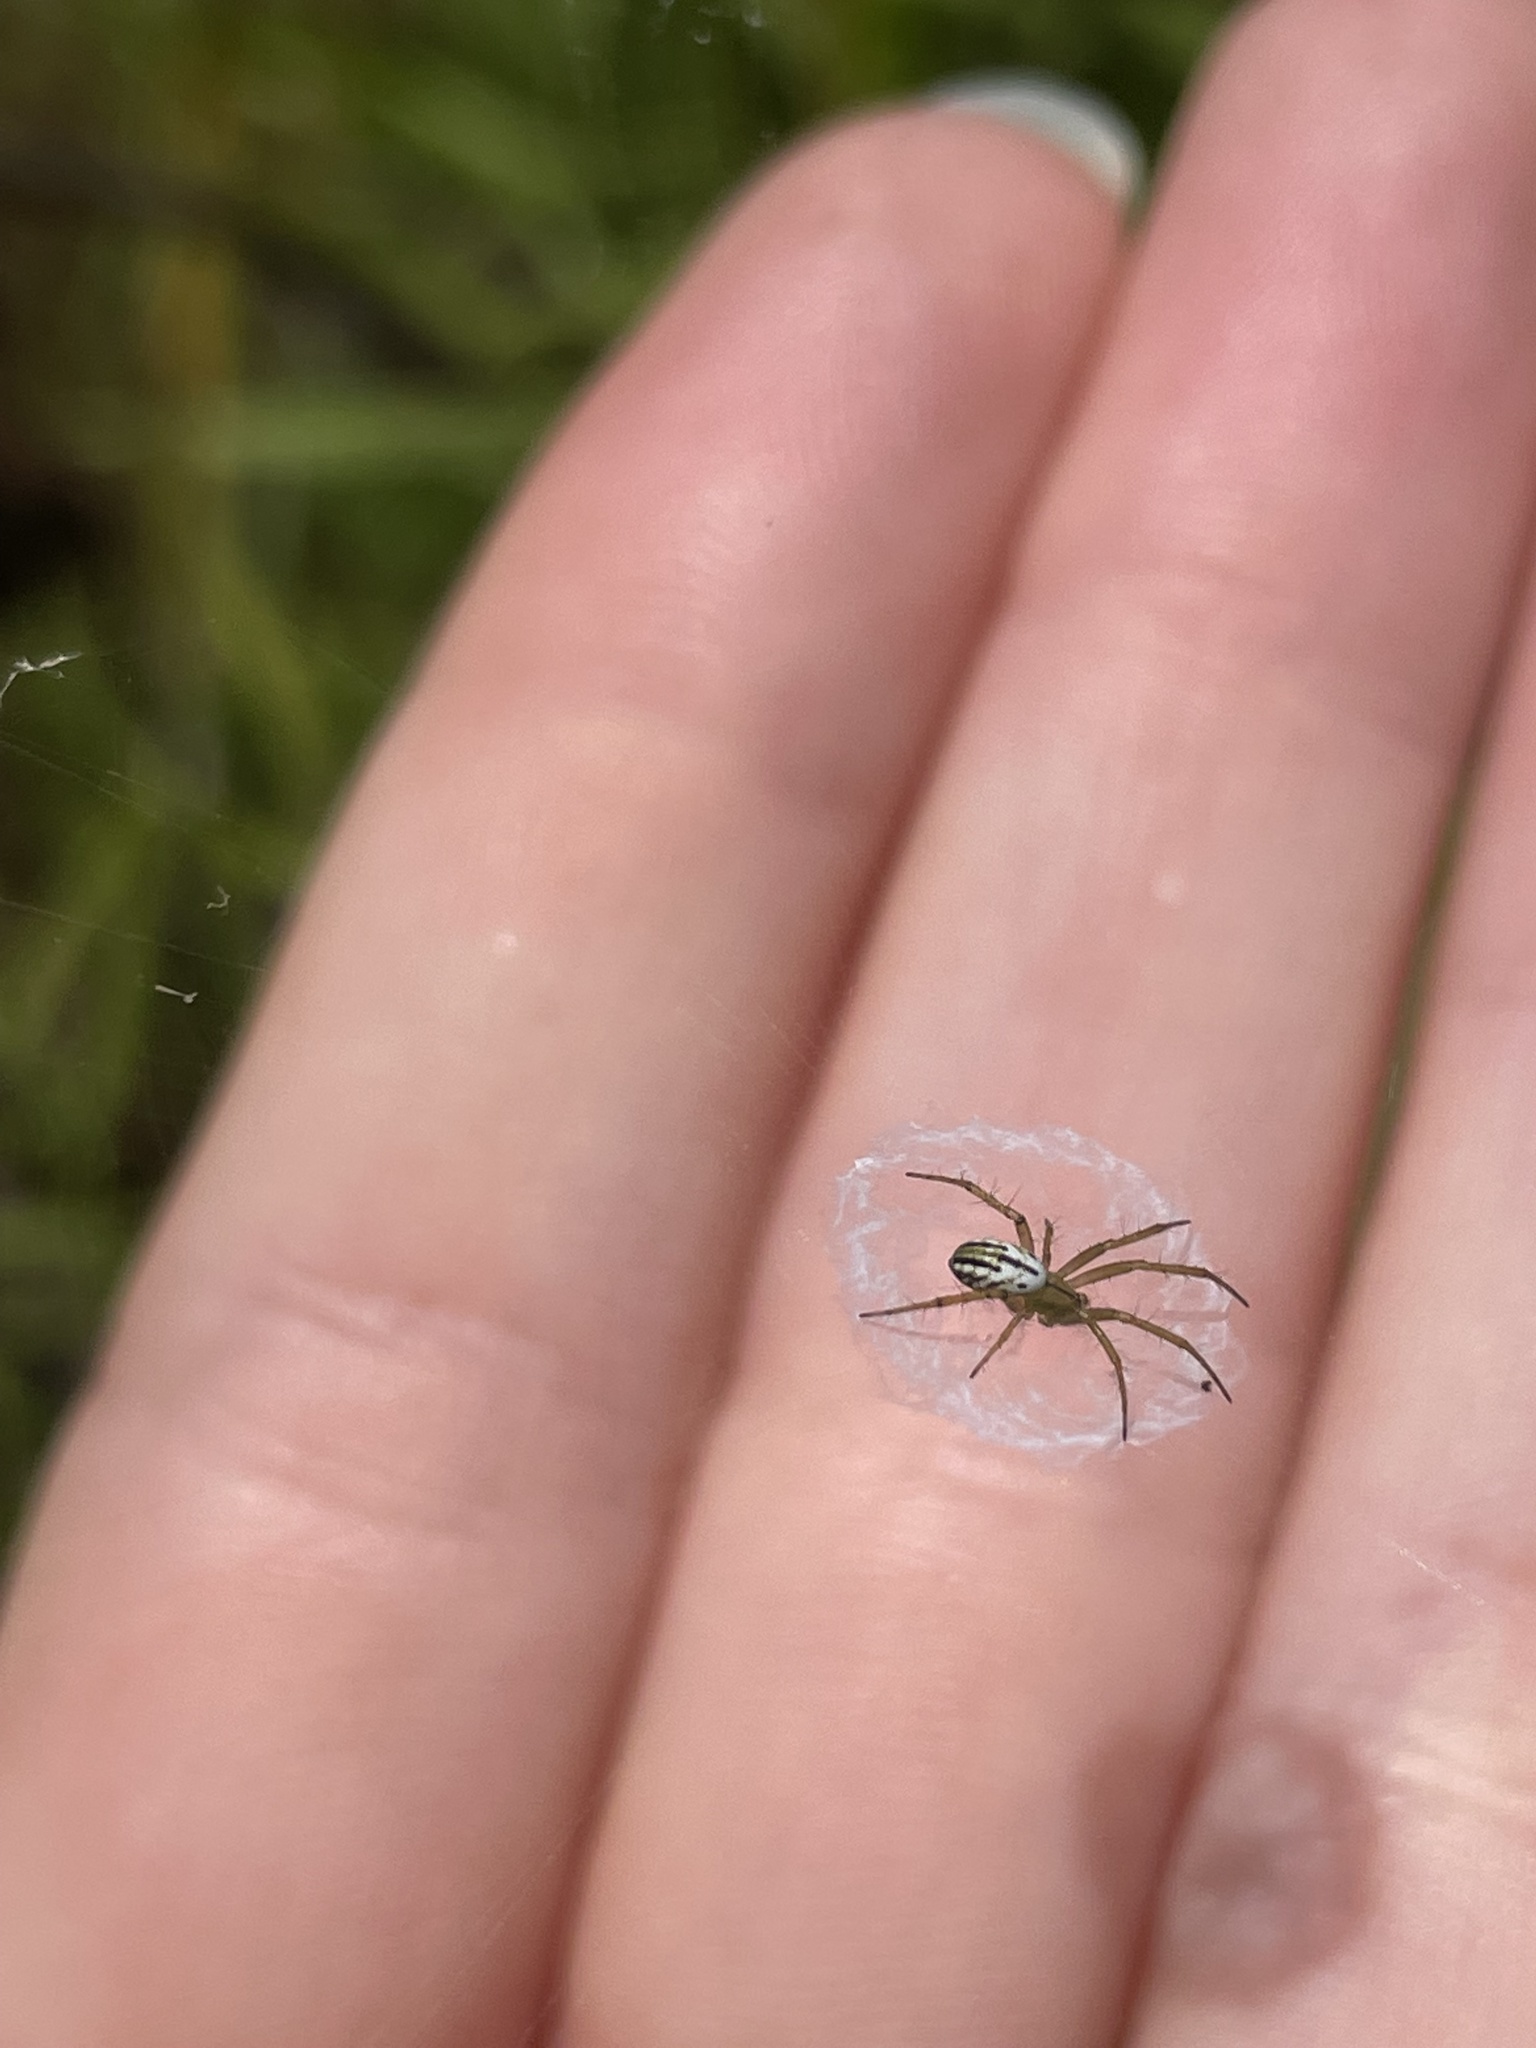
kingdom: Animalia
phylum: Arthropoda
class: Arachnida
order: Araneae
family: Araneidae
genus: Mangora
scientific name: Mangora gibberosa
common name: Lined orbweaver
